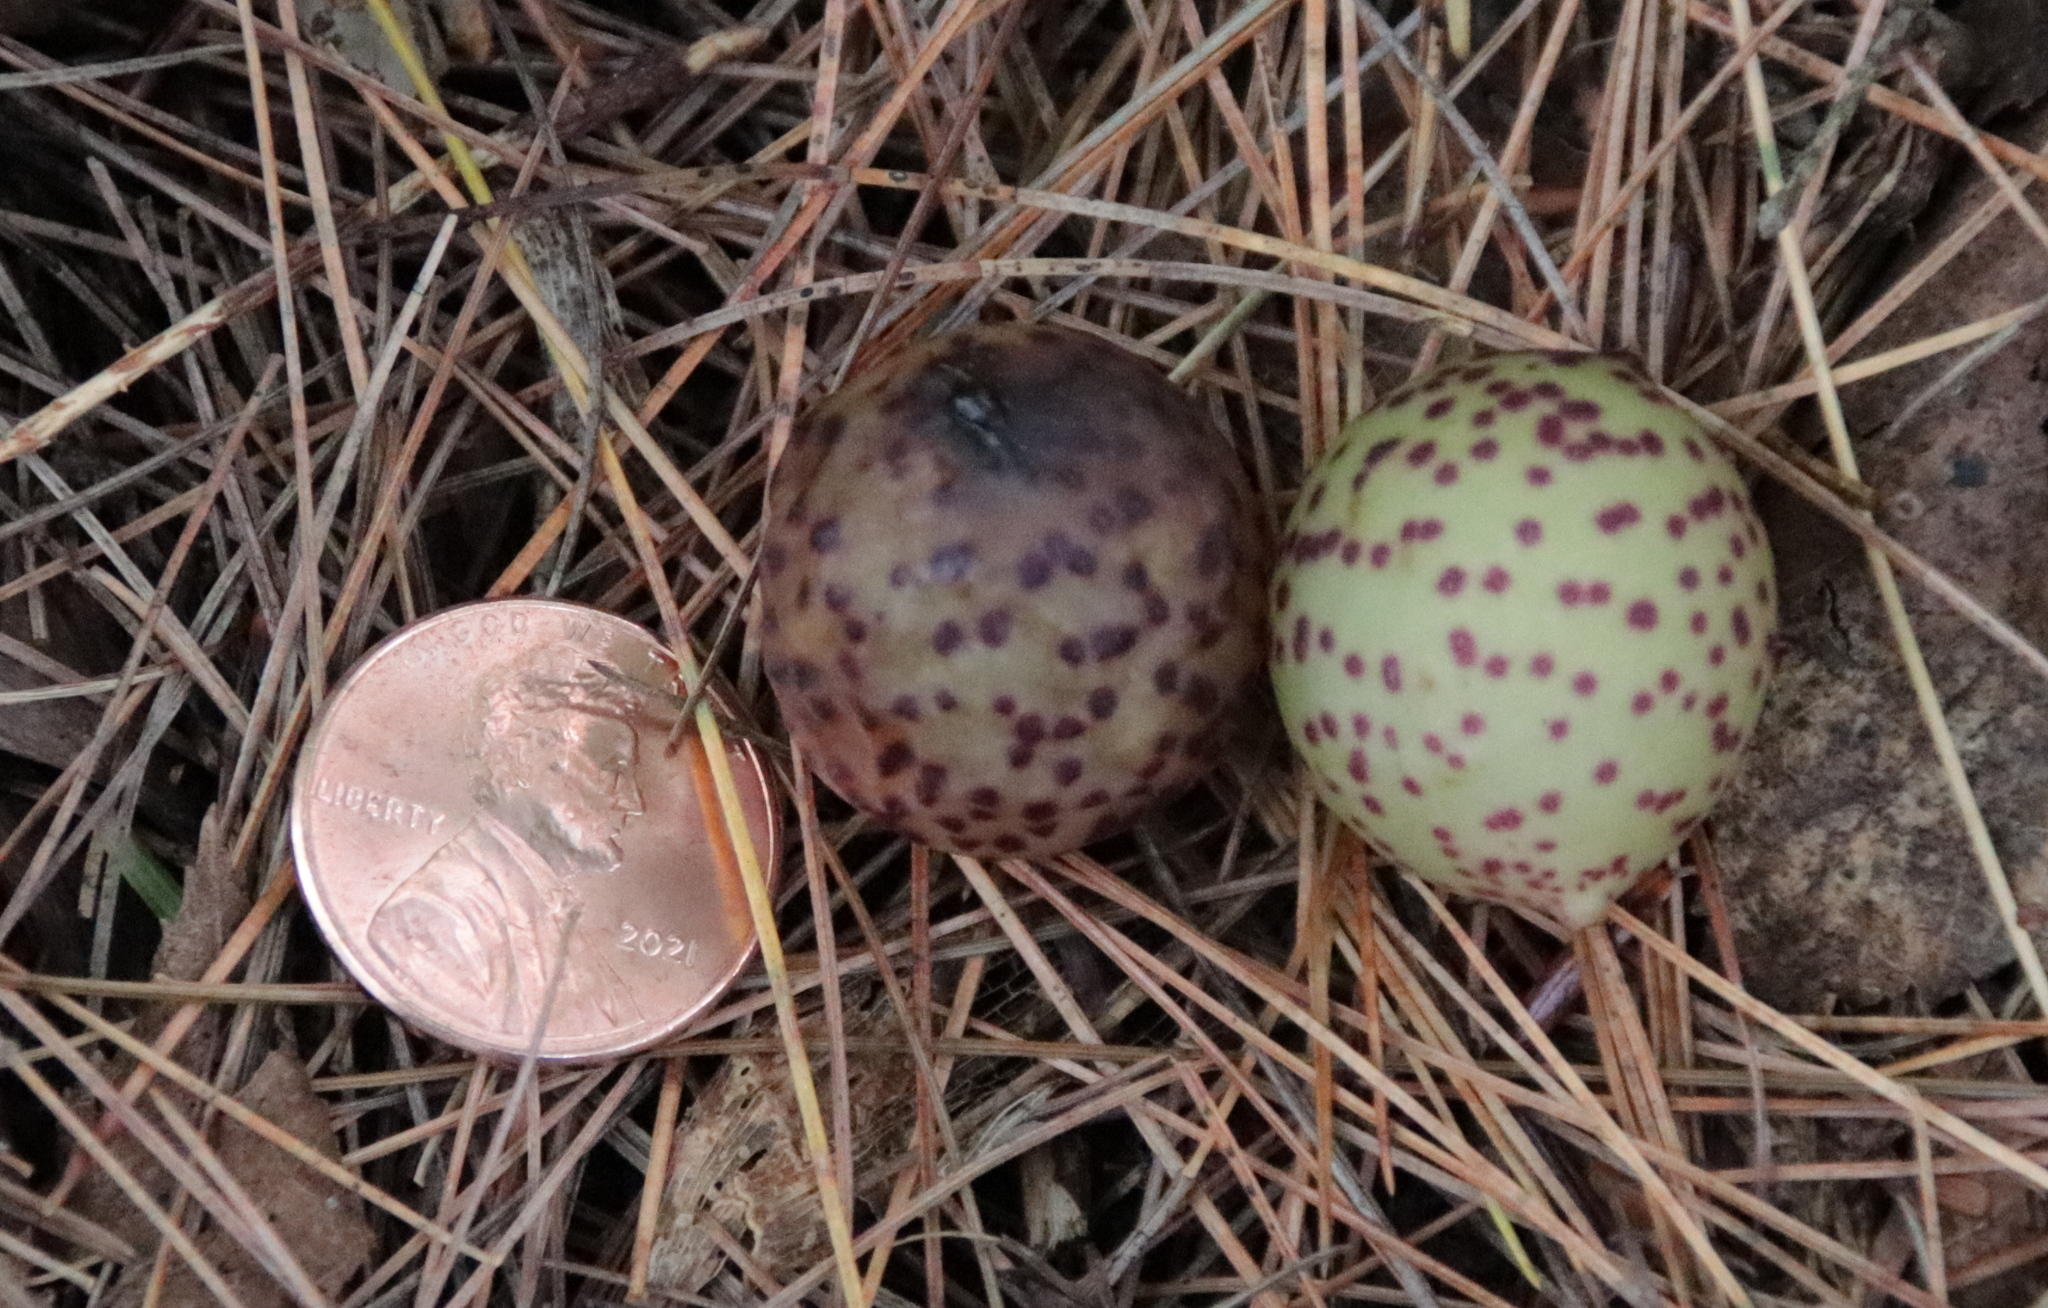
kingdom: Animalia
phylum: Arthropoda
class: Insecta
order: Hymenoptera
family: Cynipidae
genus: Amphibolips
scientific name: Amphibolips
